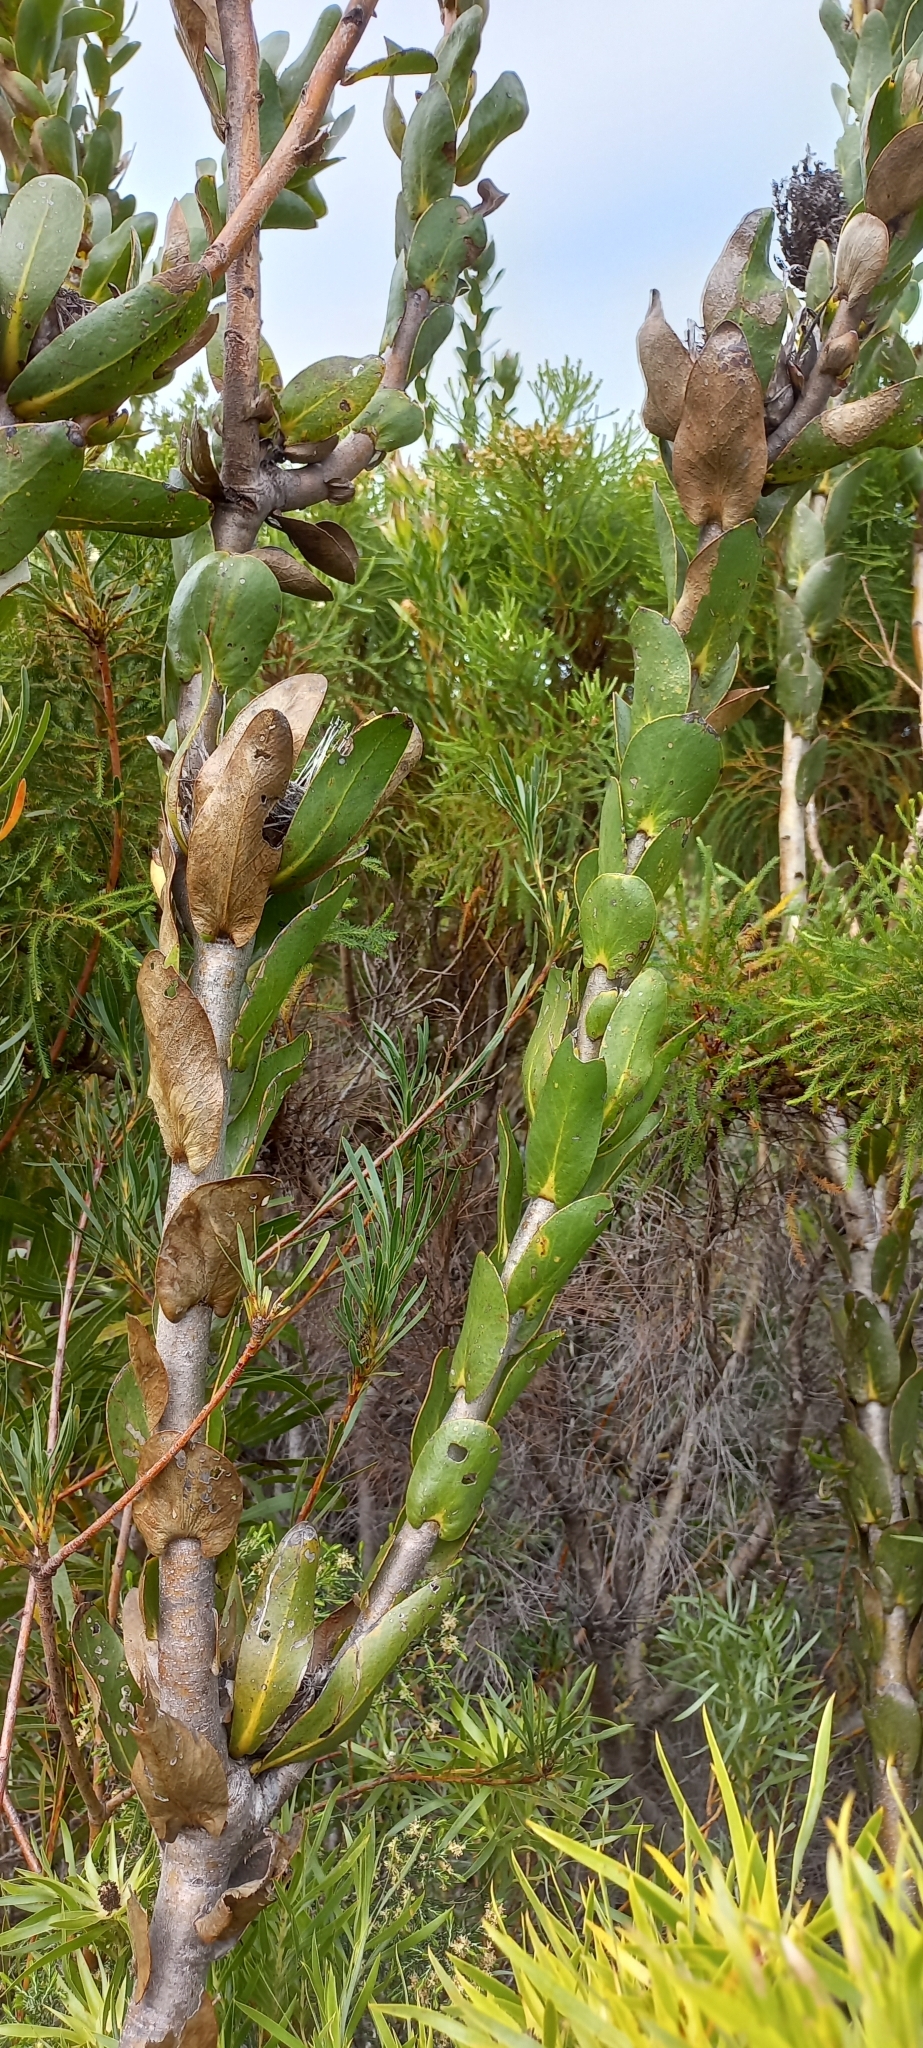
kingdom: Plantae
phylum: Tracheophyta
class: Magnoliopsida
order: Proteales
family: Proteaceae
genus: Protea
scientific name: Protea compacta
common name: Bot river protea
